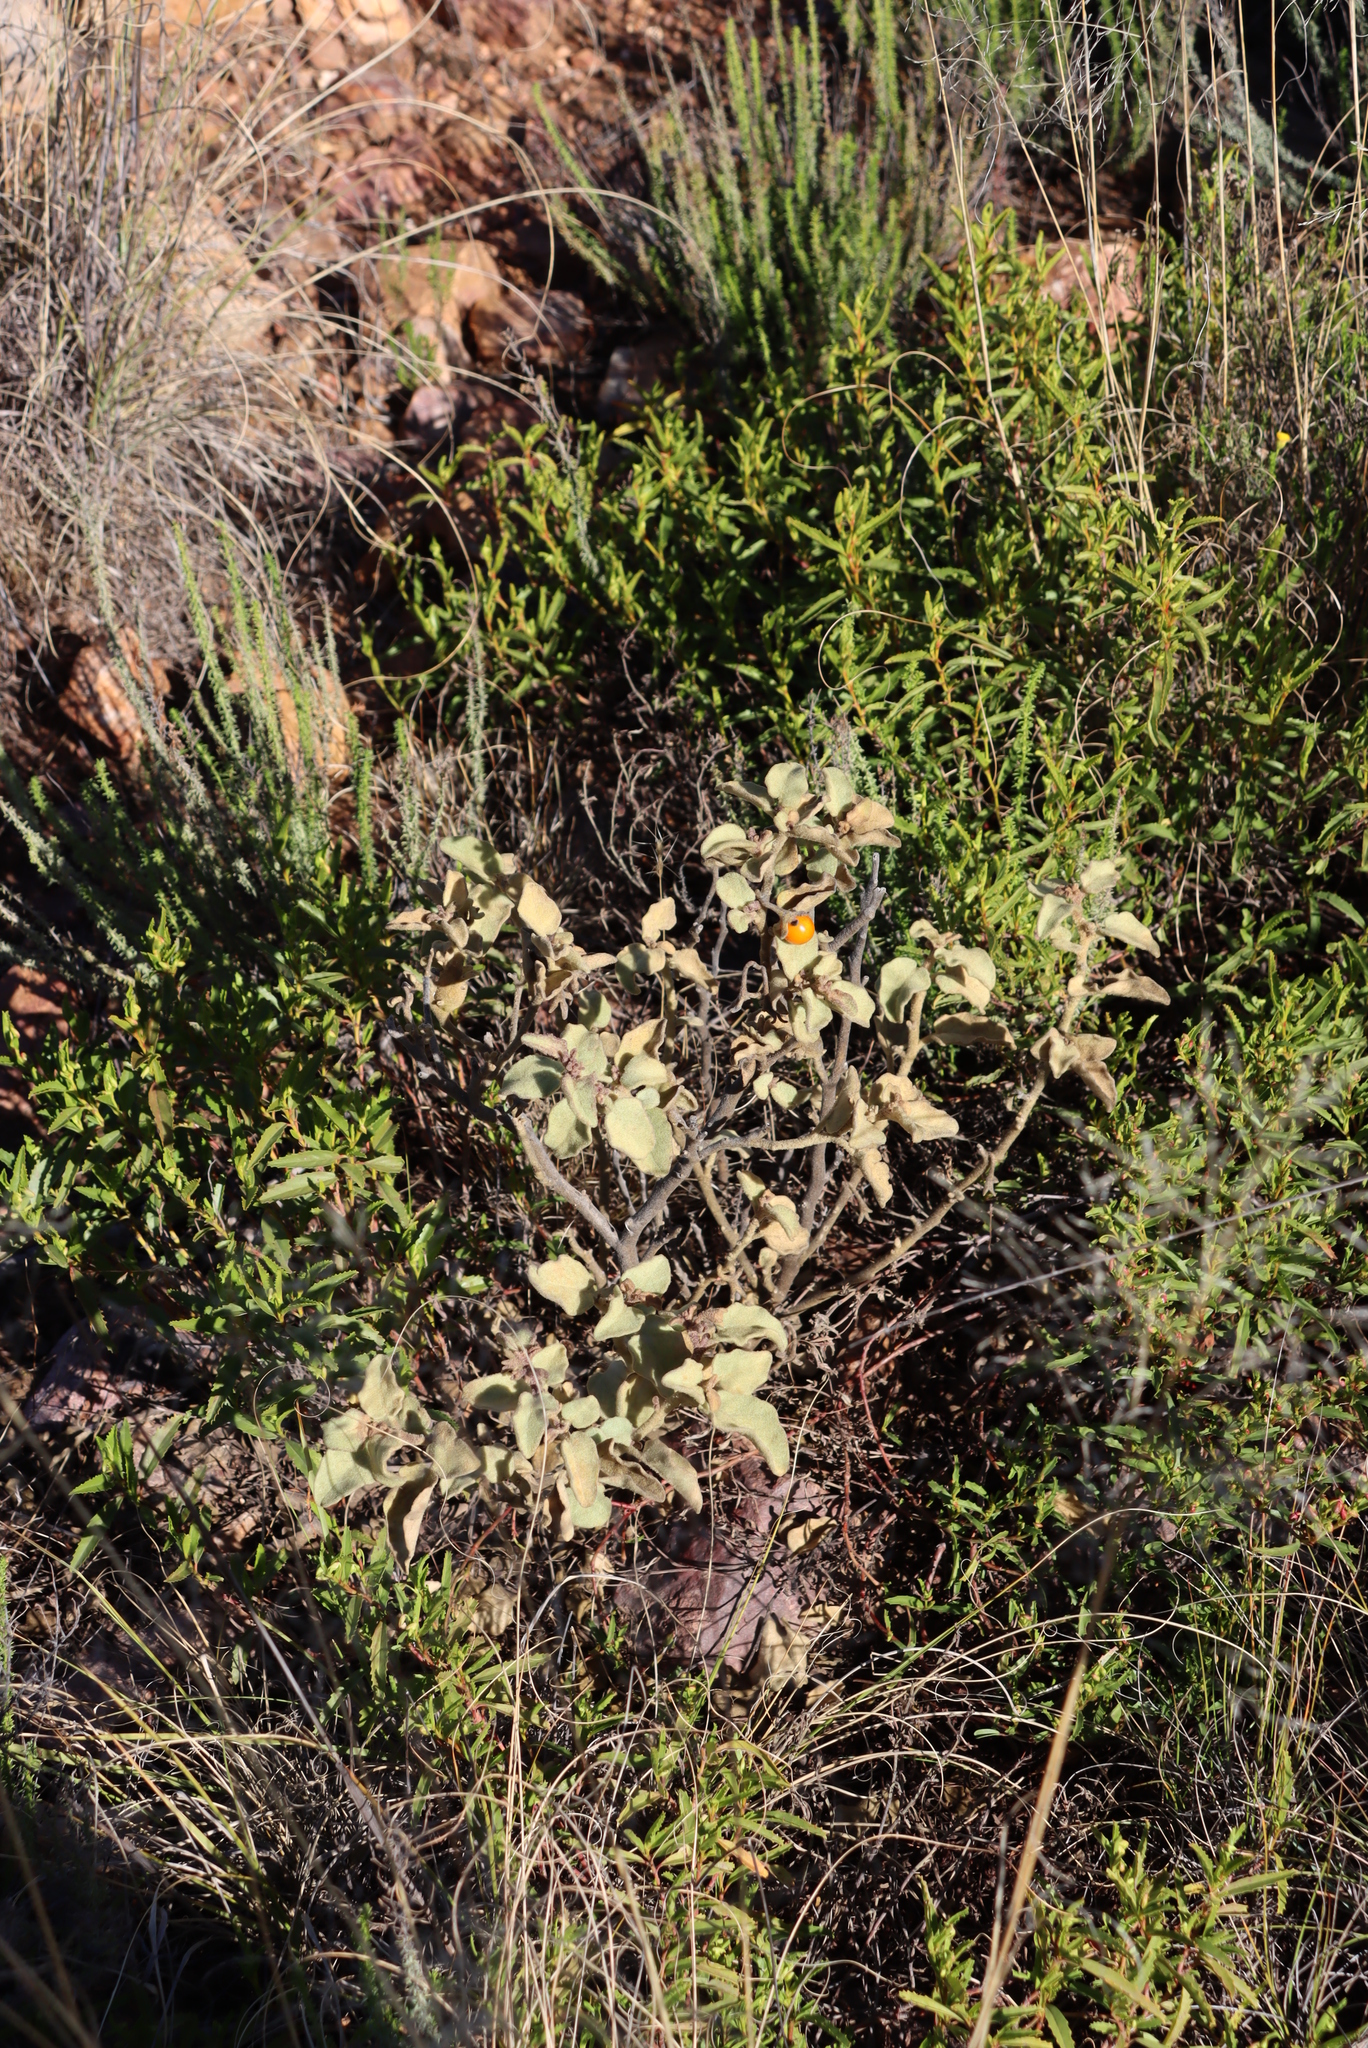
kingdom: Plantae
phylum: Tracheophyta
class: Magnoliopsida
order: Solanales
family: Solanaceae
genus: Solanum
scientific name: Solanum tomentosum
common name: Wild aubergine
